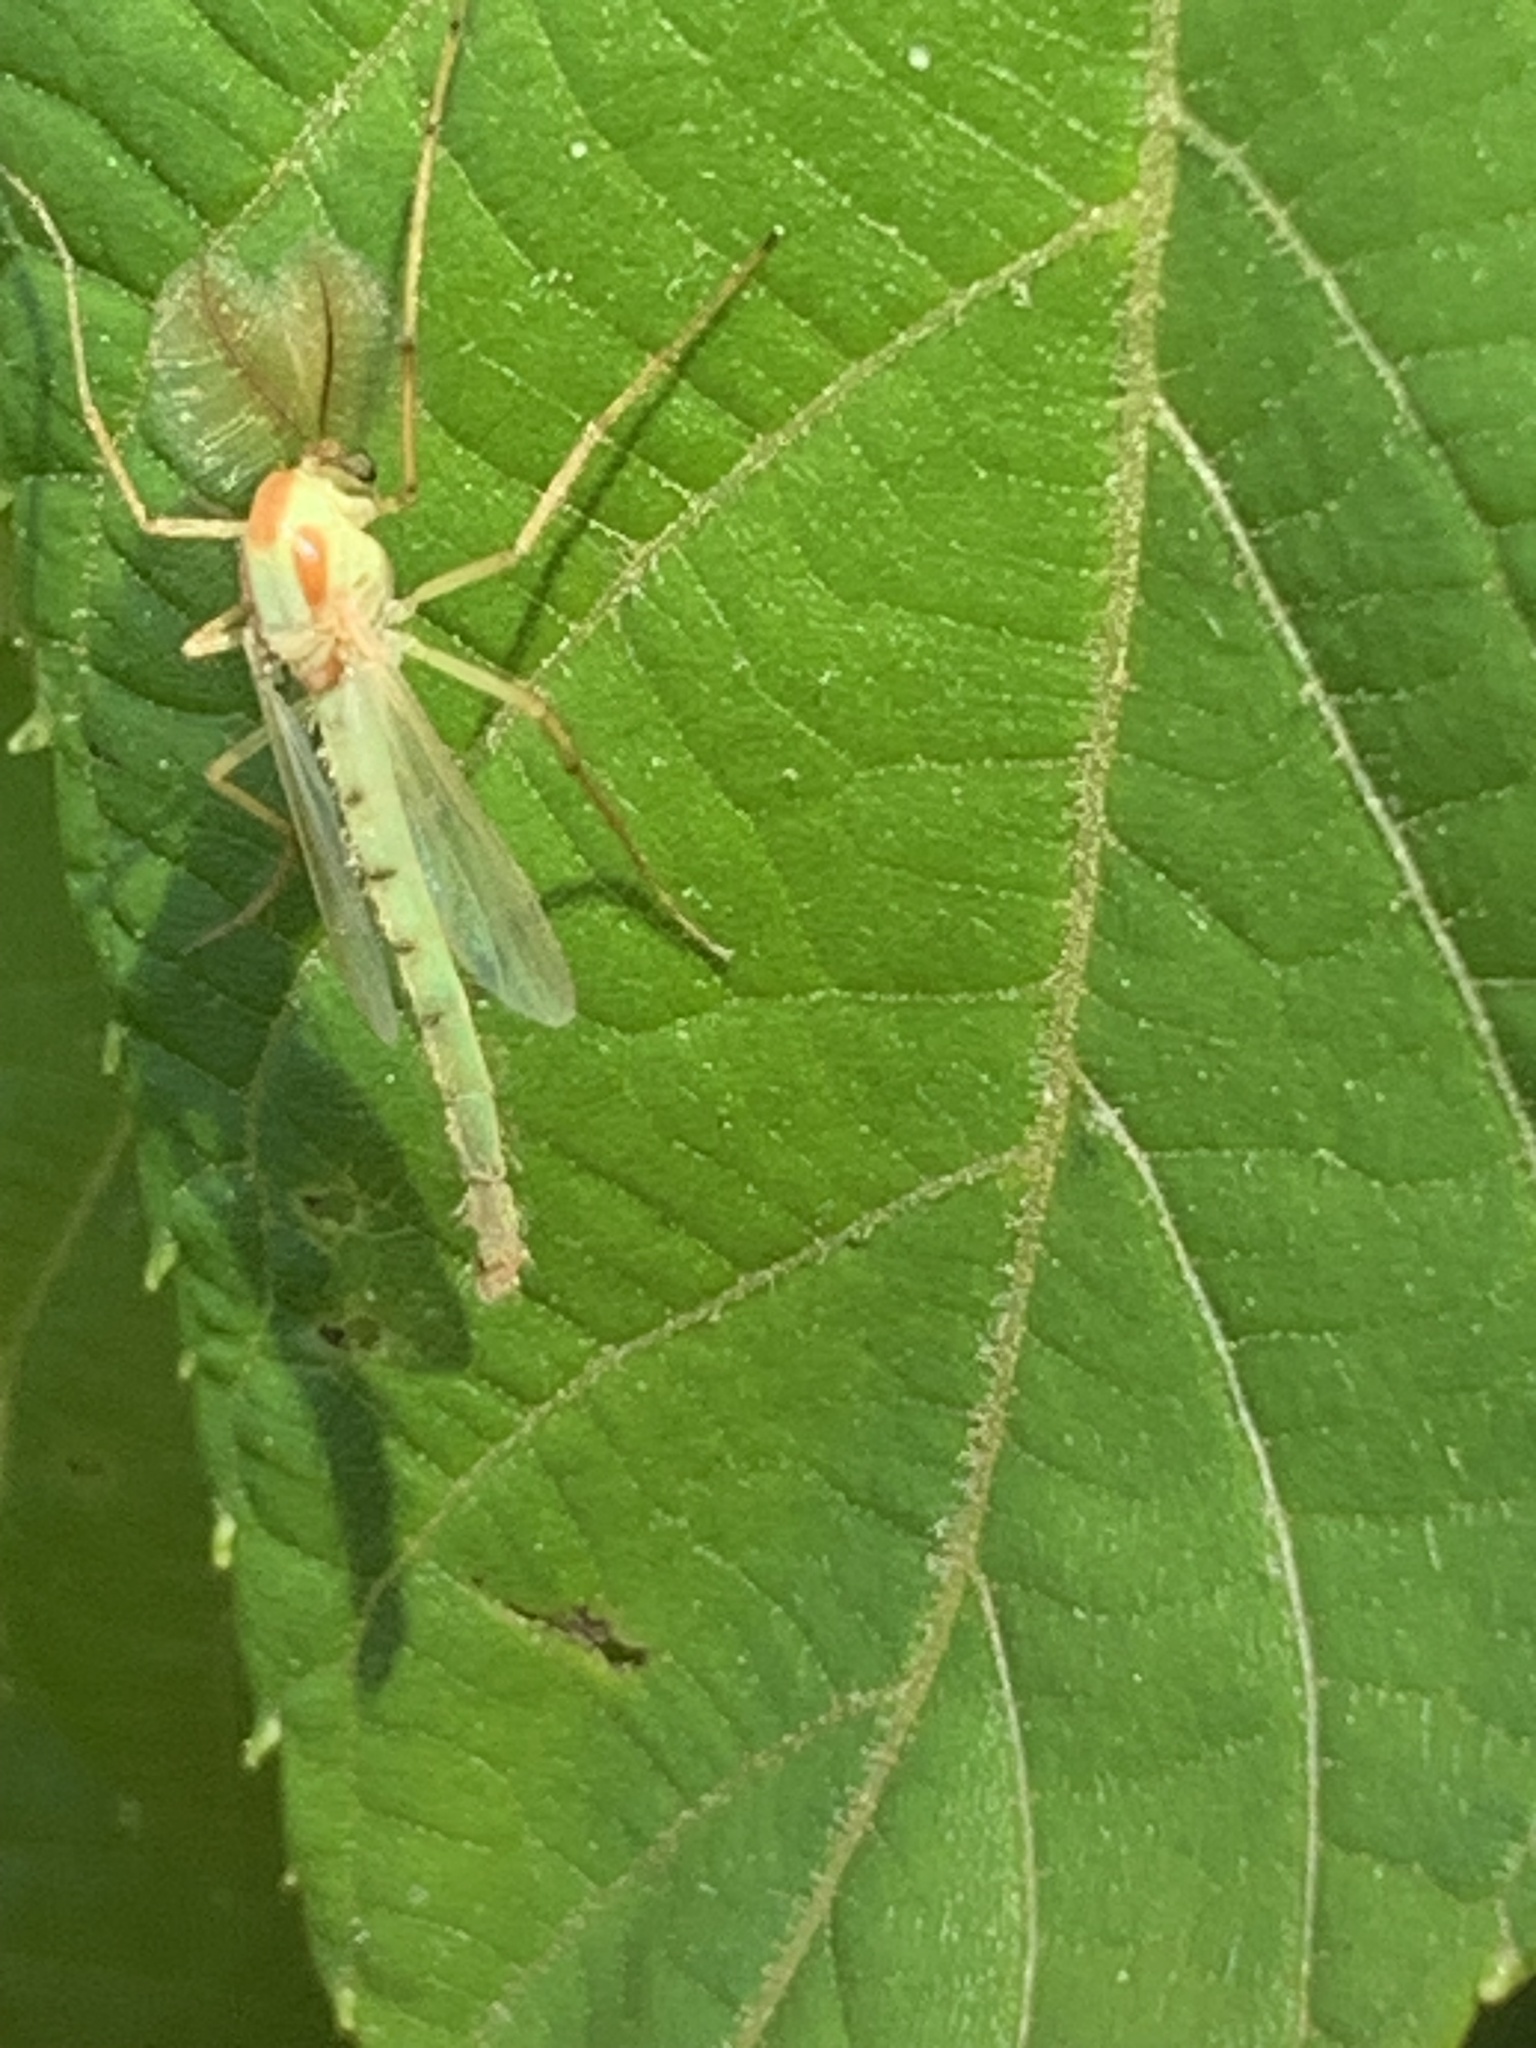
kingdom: Animalia
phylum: Arthropoda
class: Insecta
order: Diptera
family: Chironomidae
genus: Axarus
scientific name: Axarus
